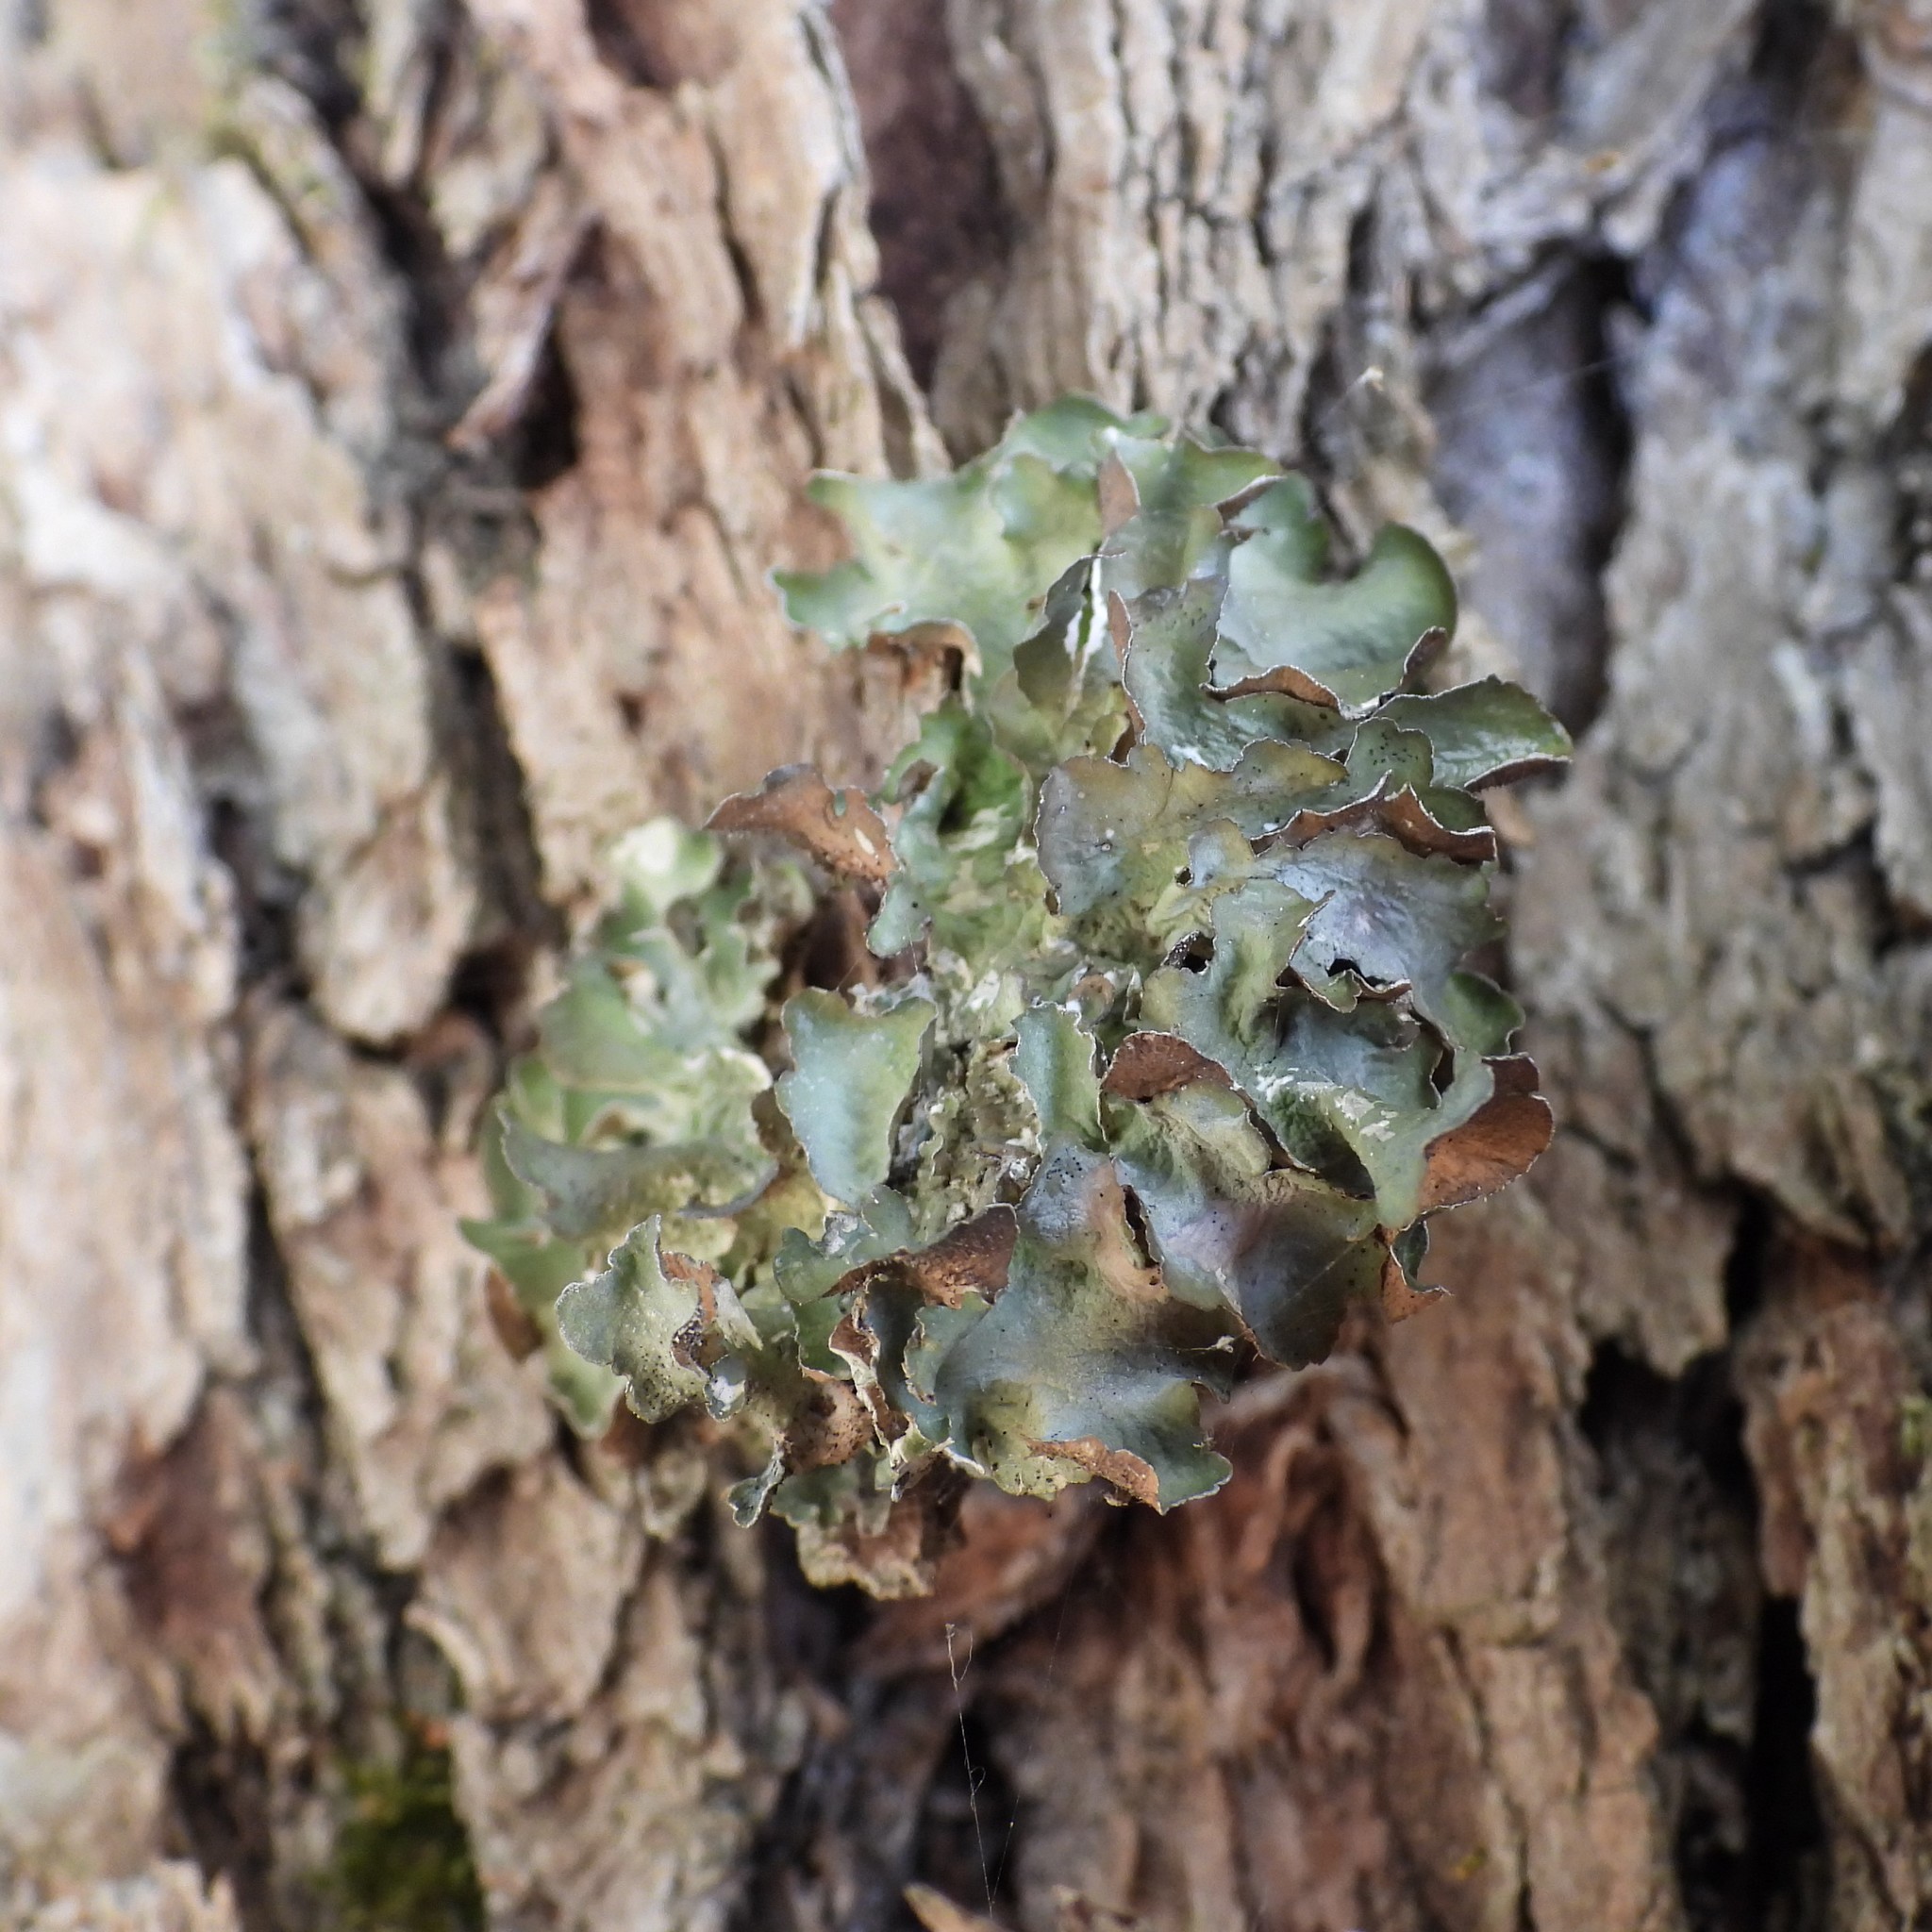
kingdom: Fungi
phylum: Ascomycota
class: Lecanoromycetes
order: Lecanorales
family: Parmeliaceae
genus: Pleurosticta
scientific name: Pleurosticta acetabulum
